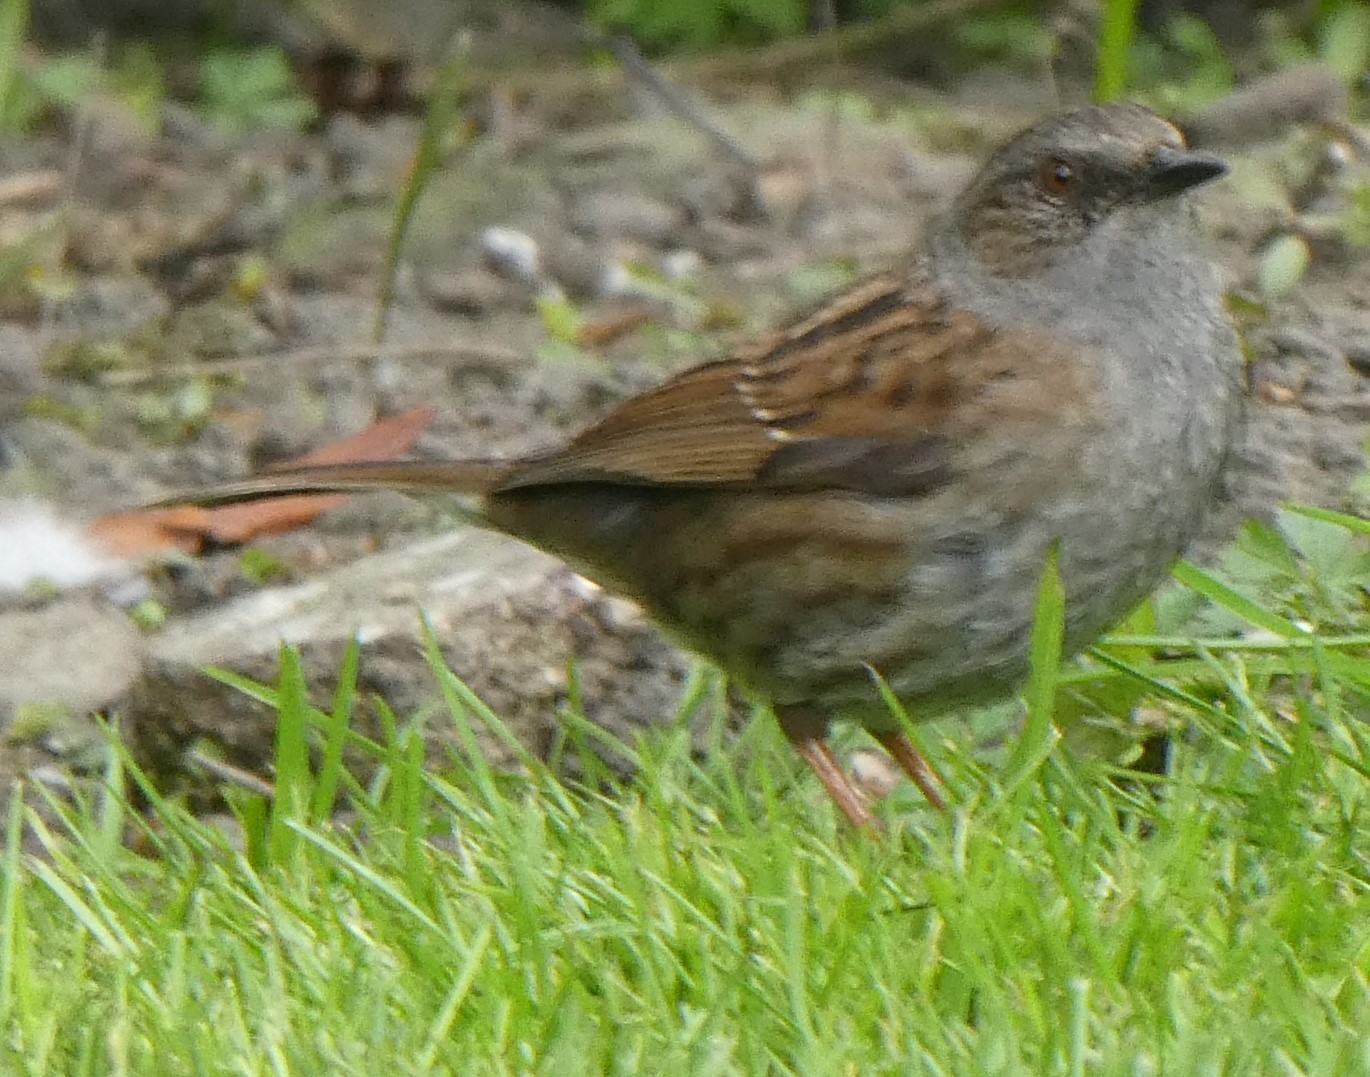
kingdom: Animalia
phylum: Chordata
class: Aves
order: Passeriformes
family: Prunellidae
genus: Prunella
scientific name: Prunella modularis
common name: Dunnock
